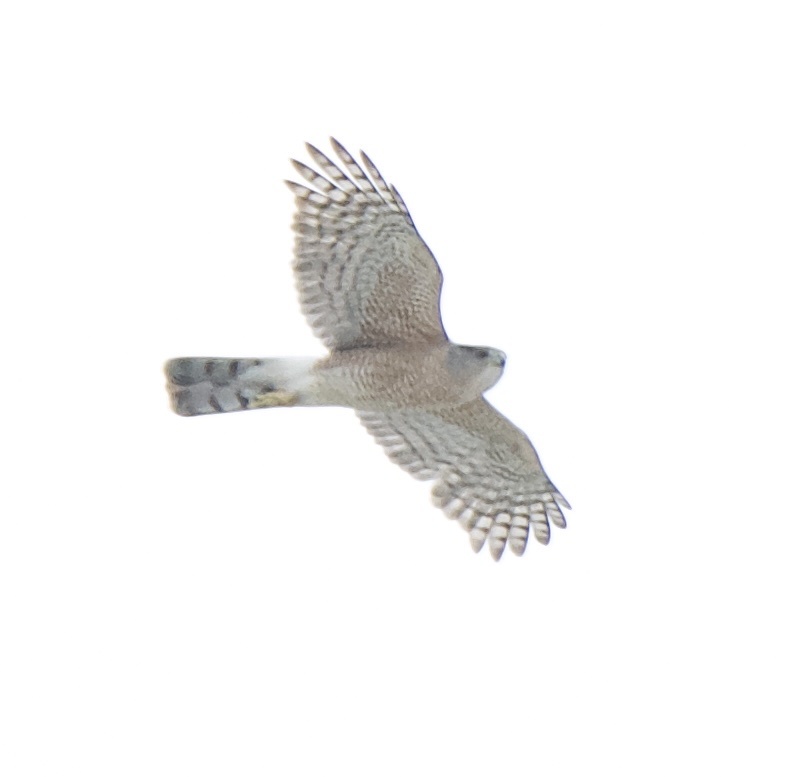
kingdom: Animalia
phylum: Chordata
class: Aves
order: Accipitriformes
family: Accipitridae
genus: Accipiter
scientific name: Accipiter cooperii
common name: Cooper's hawk
